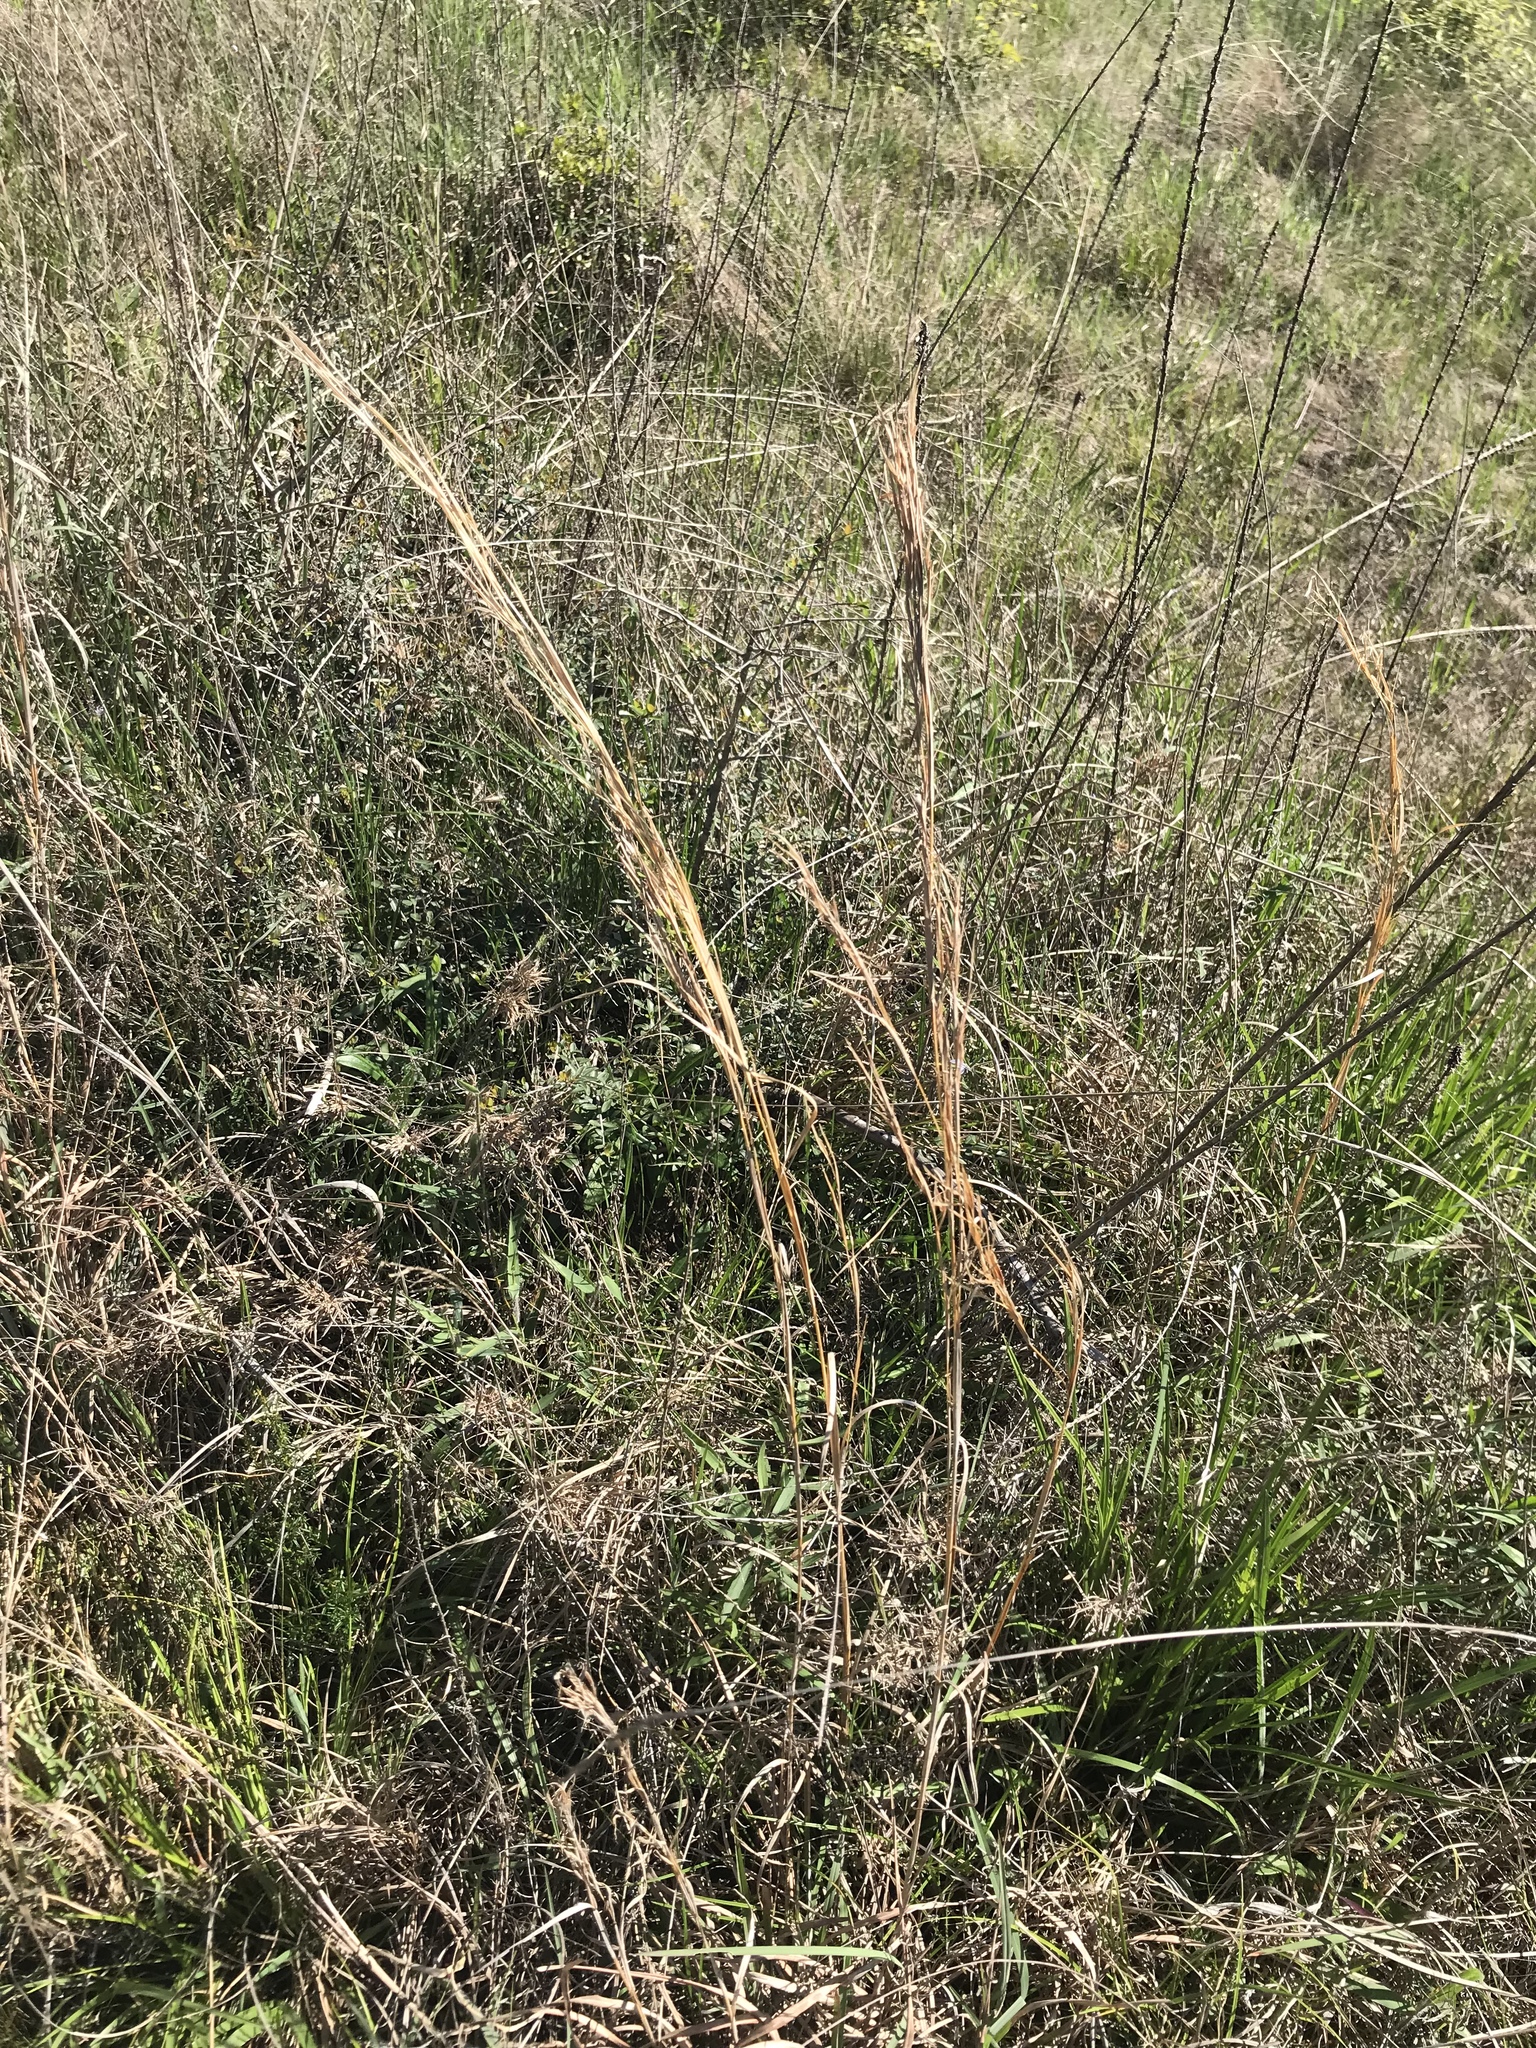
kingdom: Plantae
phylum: Tracheophyta
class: Liliopsida
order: Poales
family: Poaceae
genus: Andropogon
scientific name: Andropogon virginicus
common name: Broomsedge bluestem
